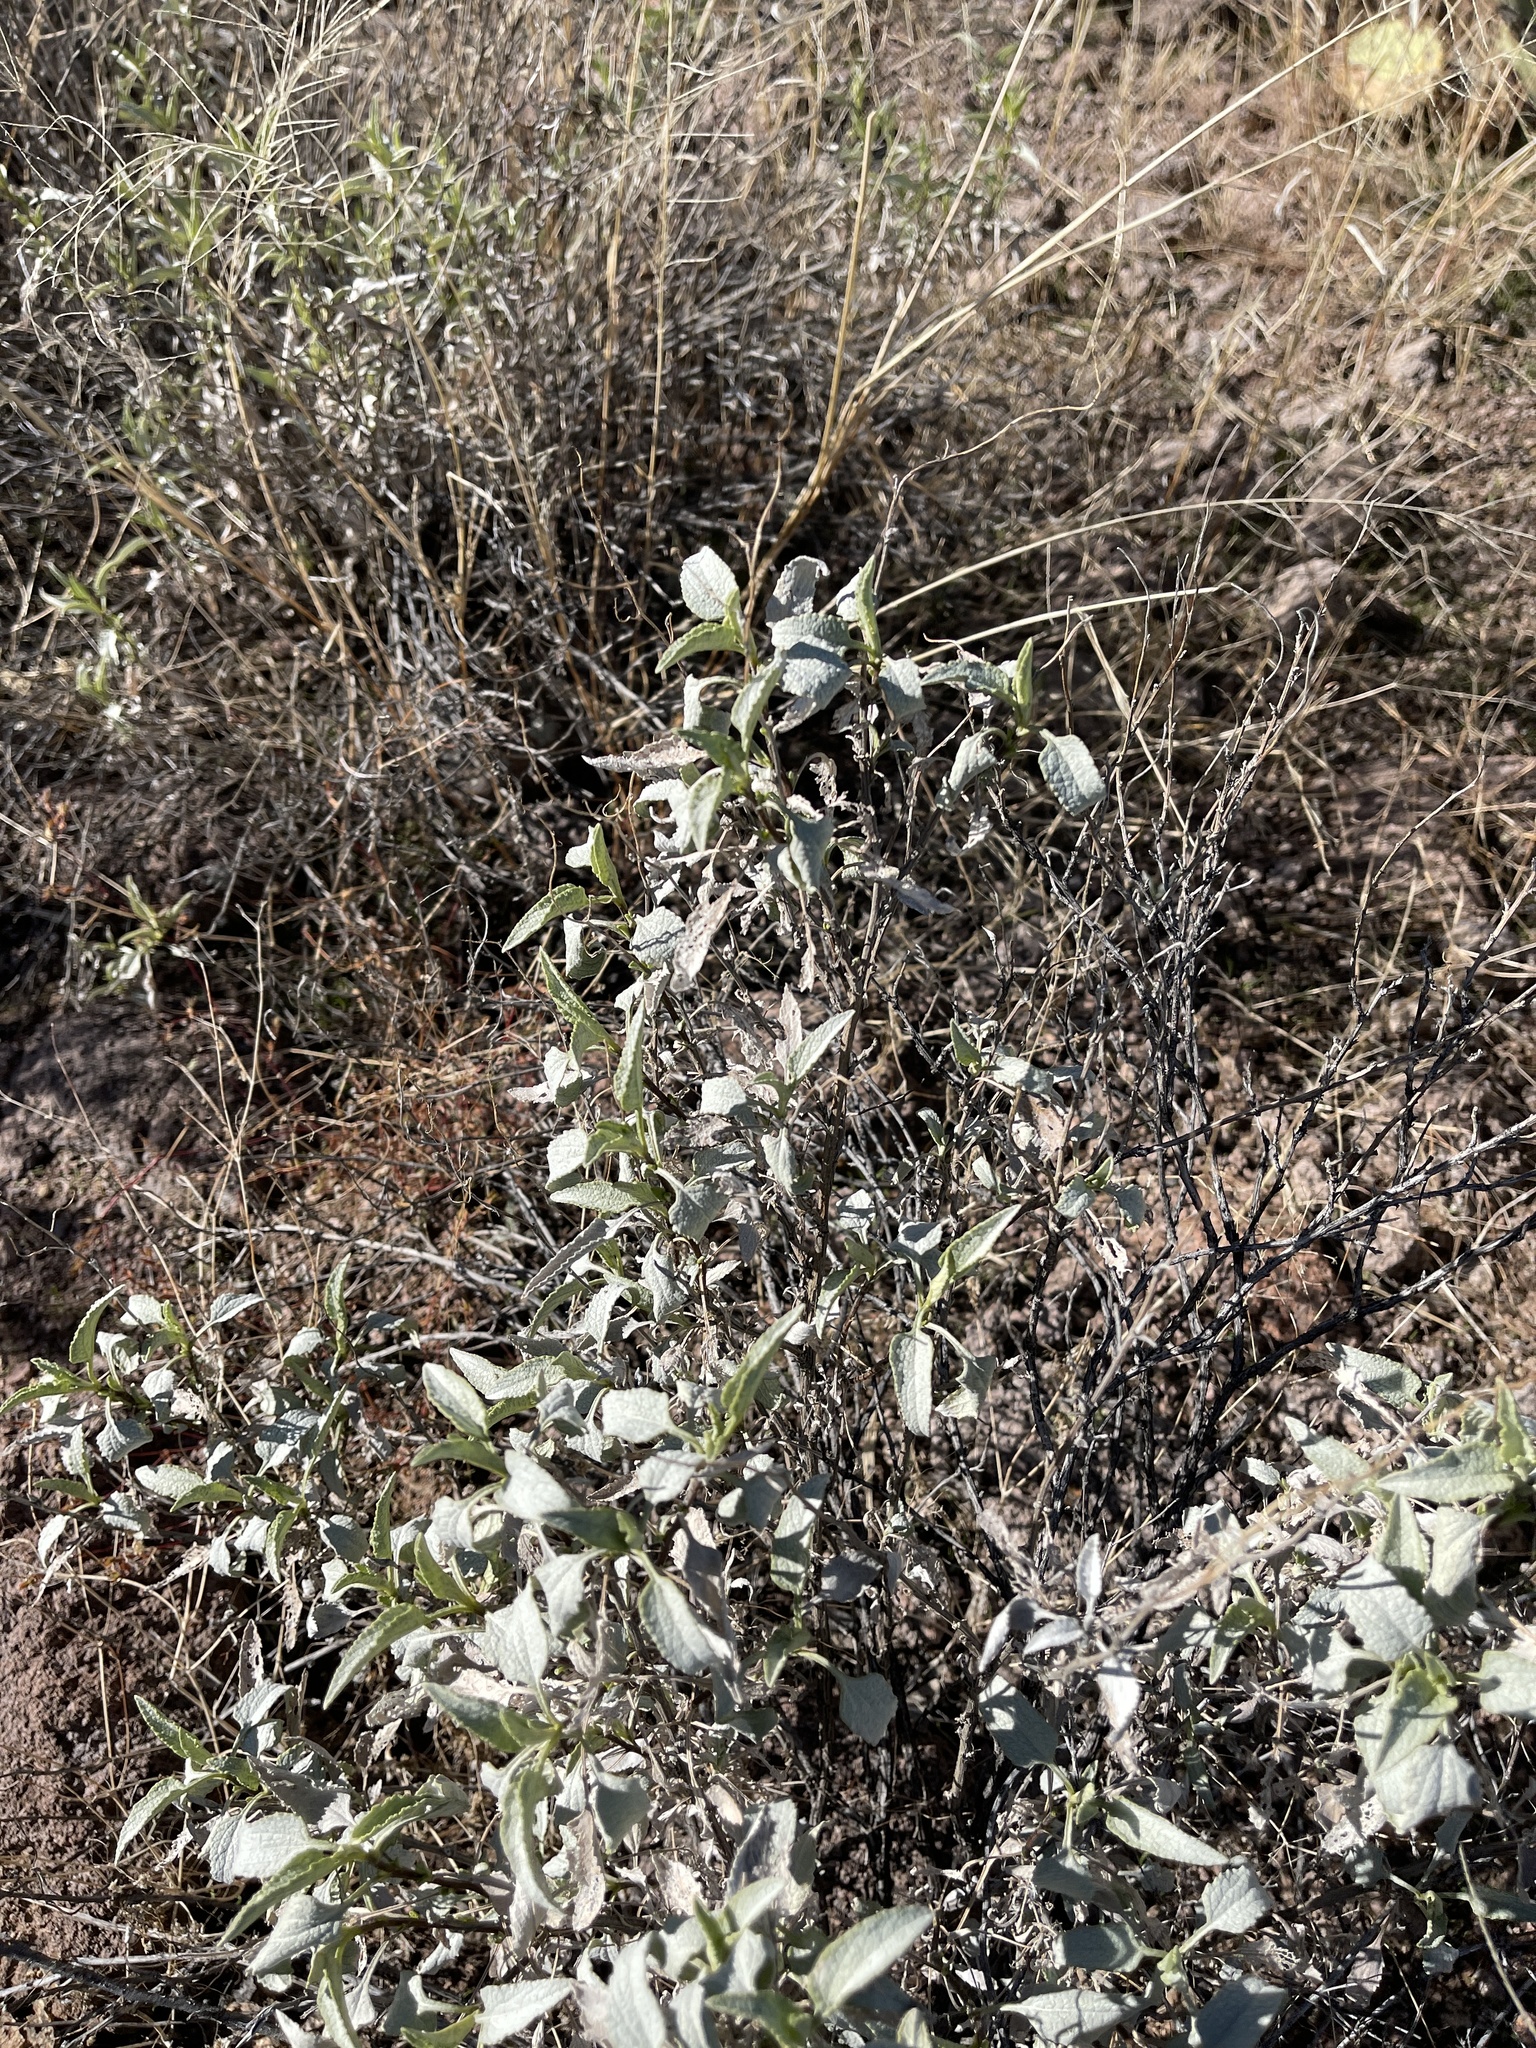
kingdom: Plantae
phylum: Tracheophyta
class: Magnoliopsida
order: Asterales
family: Asteraceae
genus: Ambrosia
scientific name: Ambrosia deltoidea
